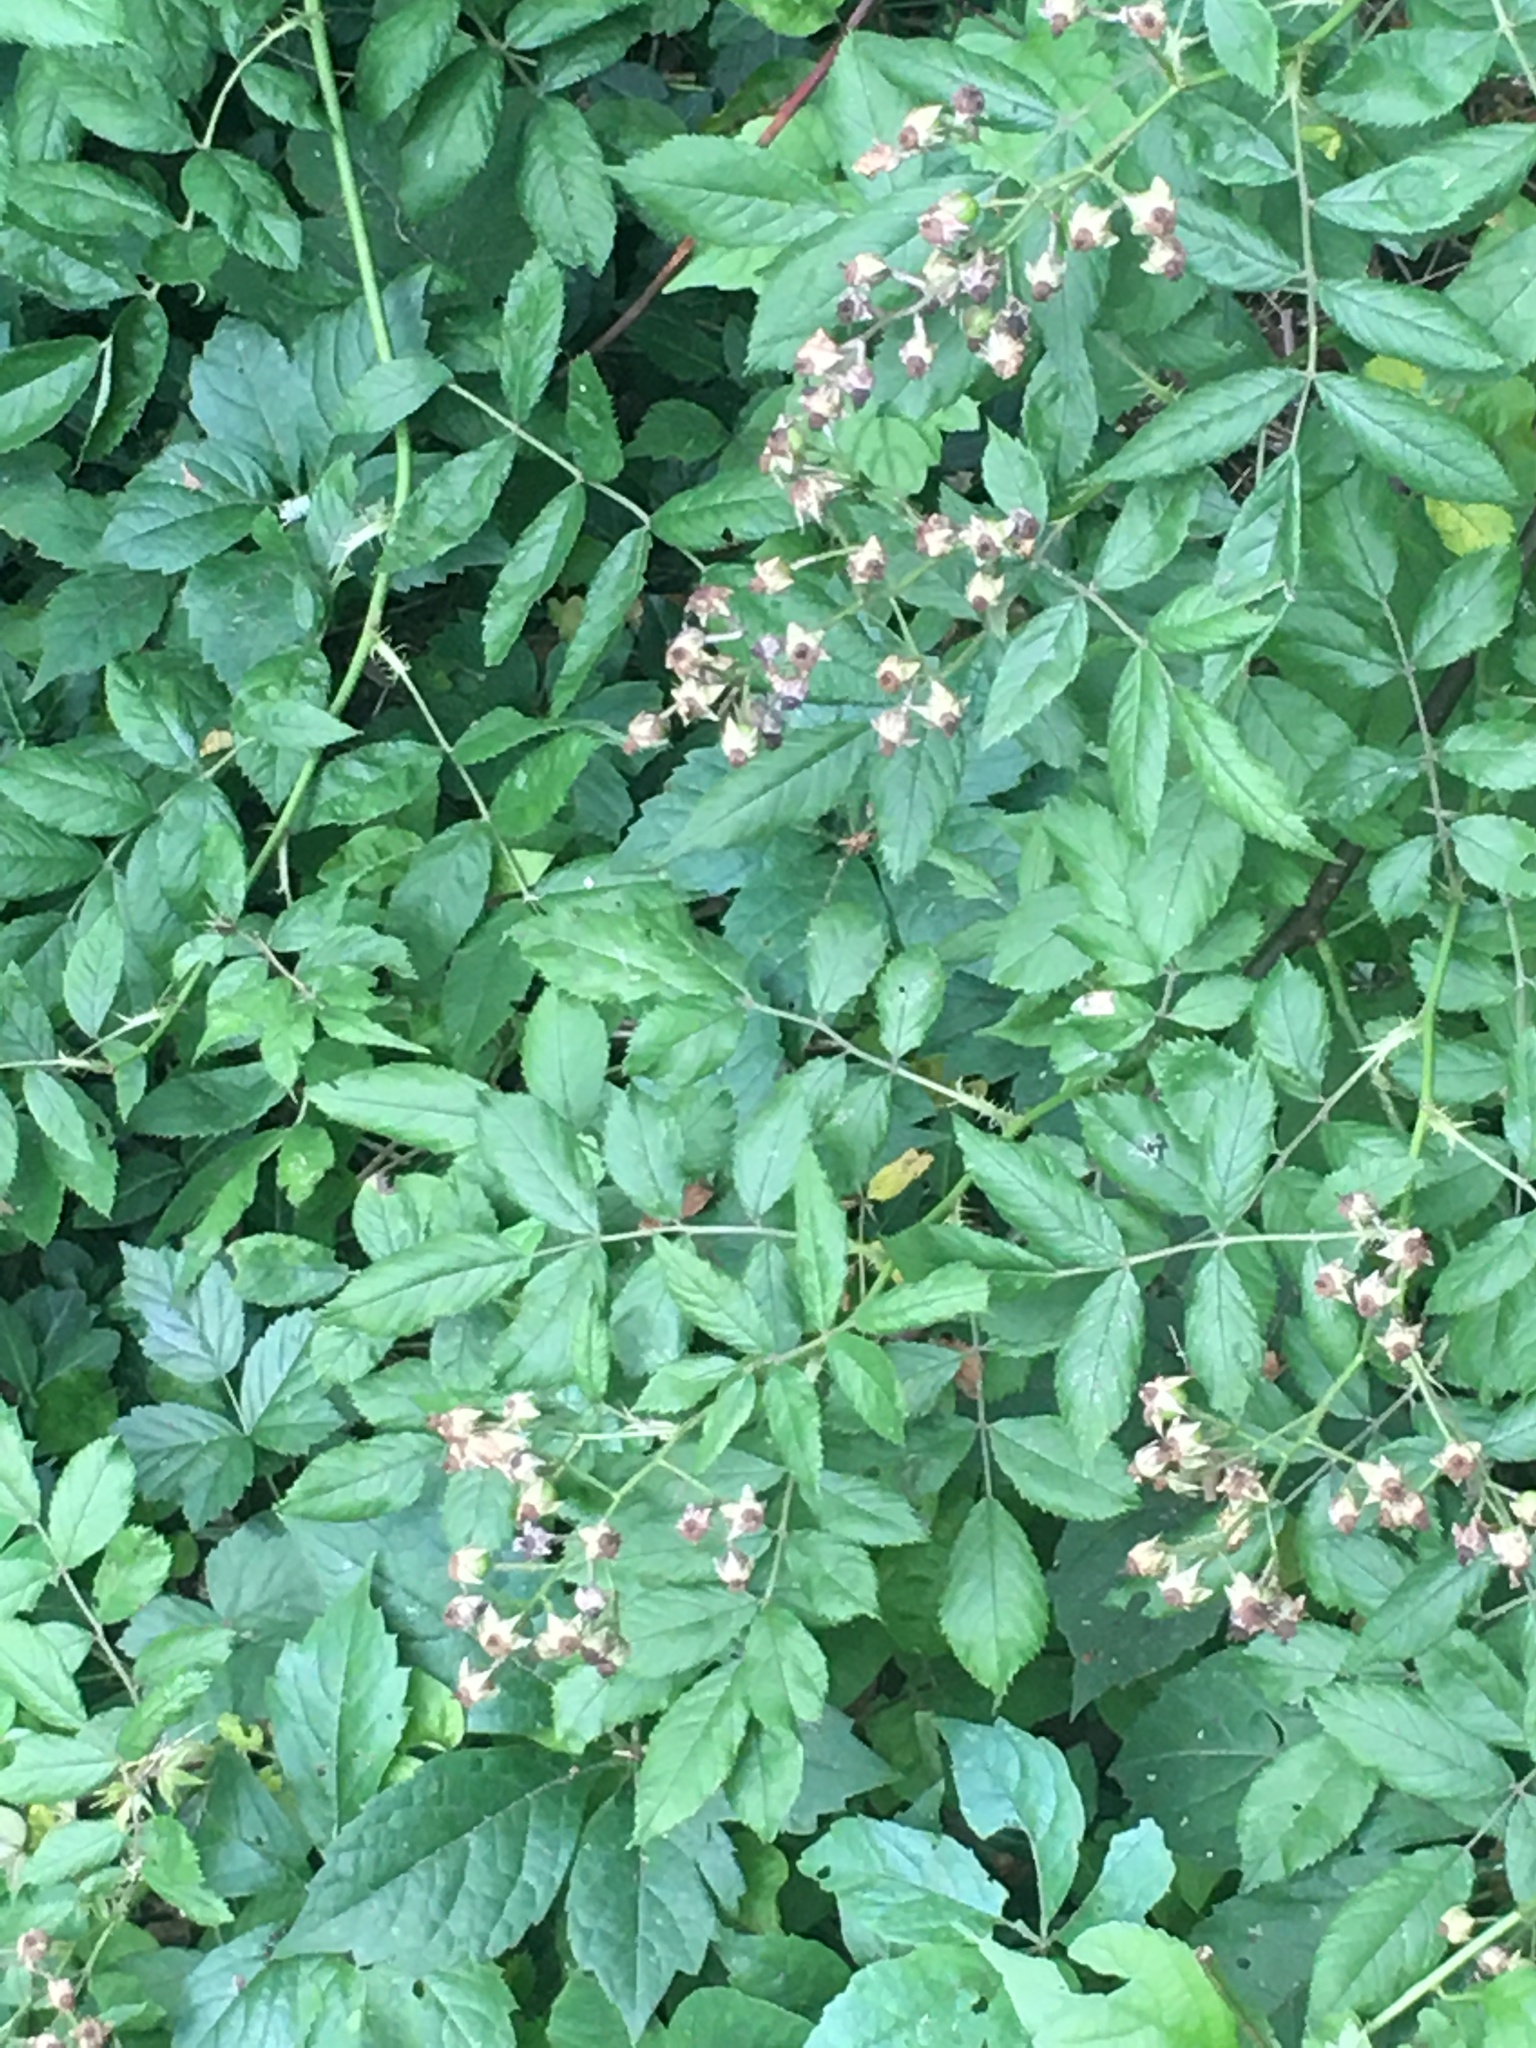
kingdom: Plantae
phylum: Tracheophyta
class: Magnoliopsida
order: Rosales
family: Rosaceae
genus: Rosa
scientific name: Rosa multiflora
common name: Multiflora rose
